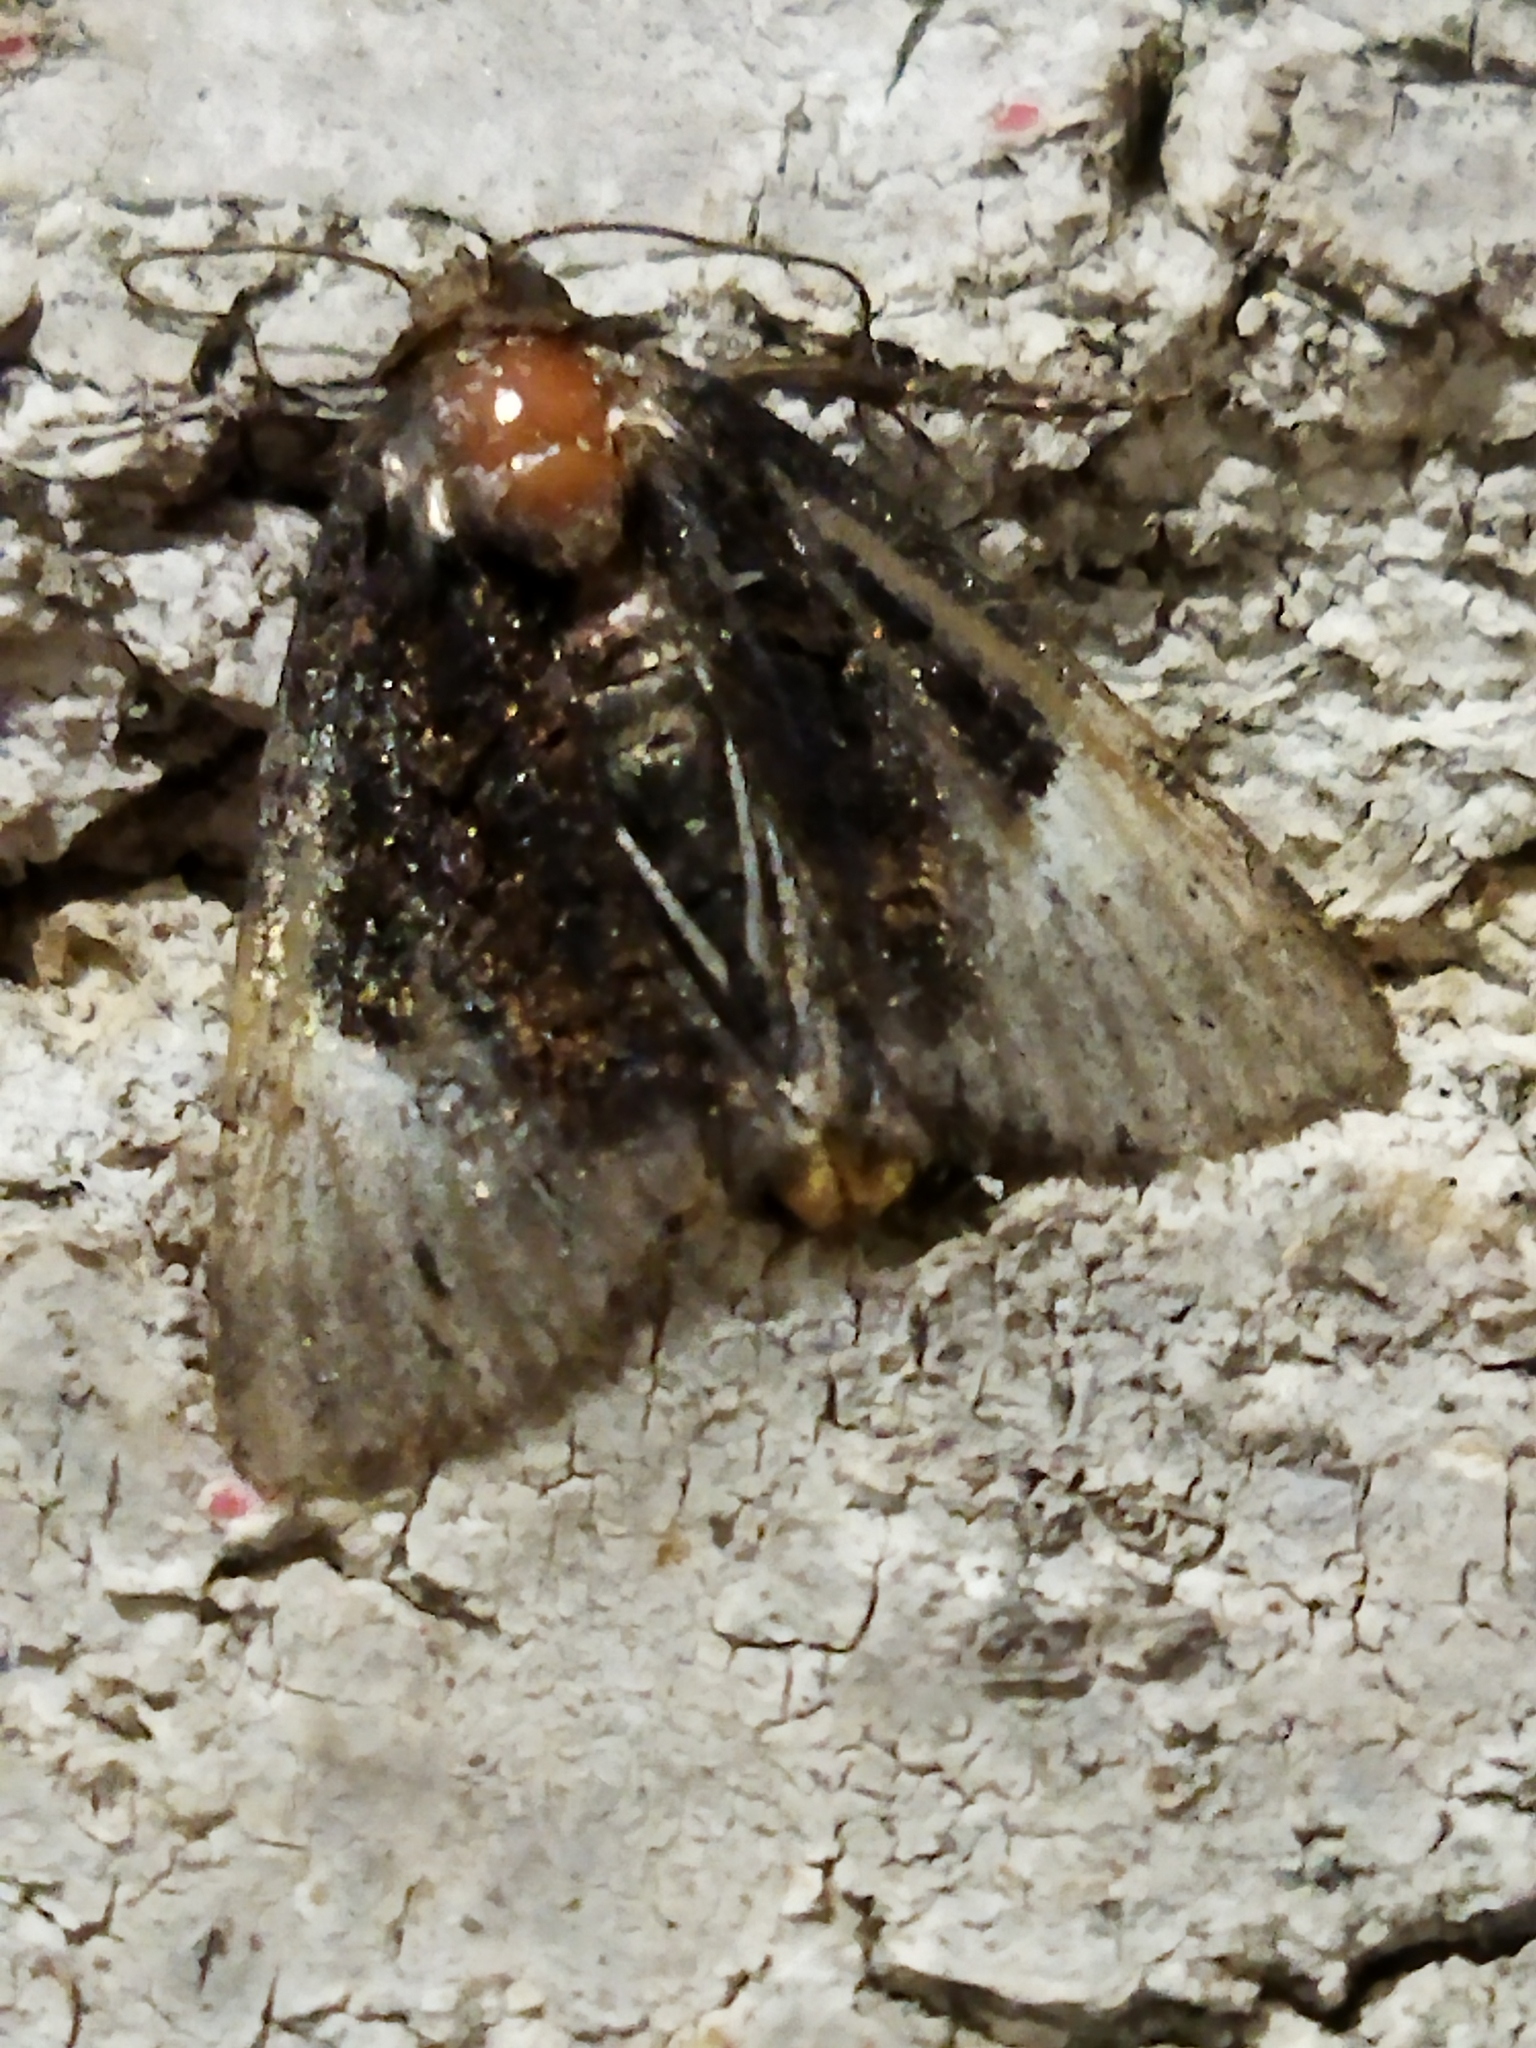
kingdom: Animalia
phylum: Arthropoda
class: Insecta
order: Lepidoptera
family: Noctuidae
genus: Aedia
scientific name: Aedia funesta
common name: The druid
